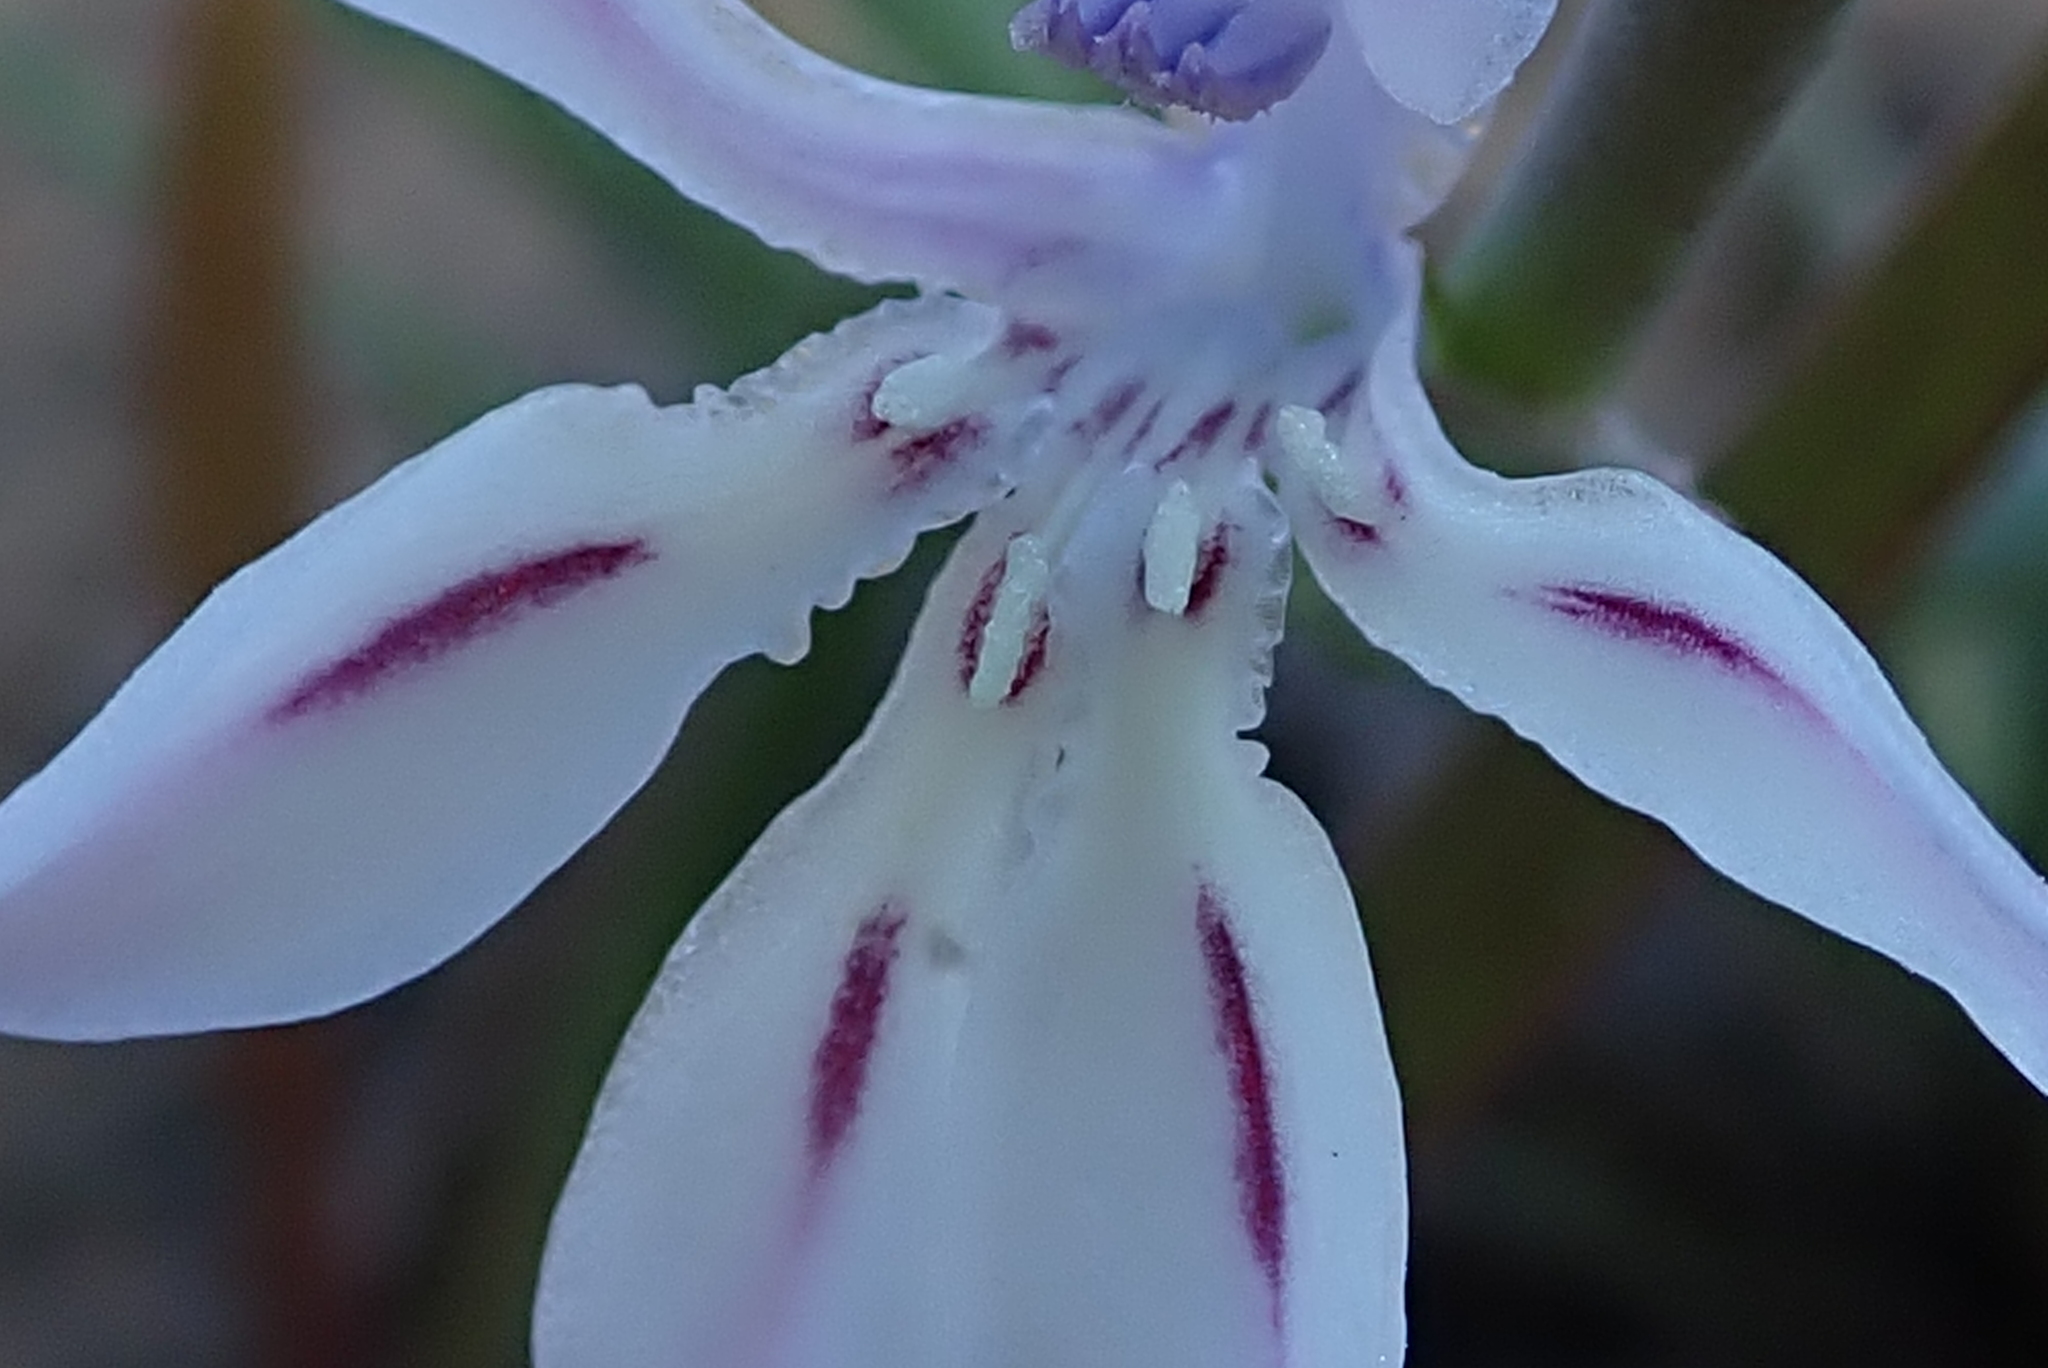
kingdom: Plantae
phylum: Tracheophyta
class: Liliopsida
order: Asparagales
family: Iridaceae
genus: Lapeirousia
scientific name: Lapeirousia divaricata
